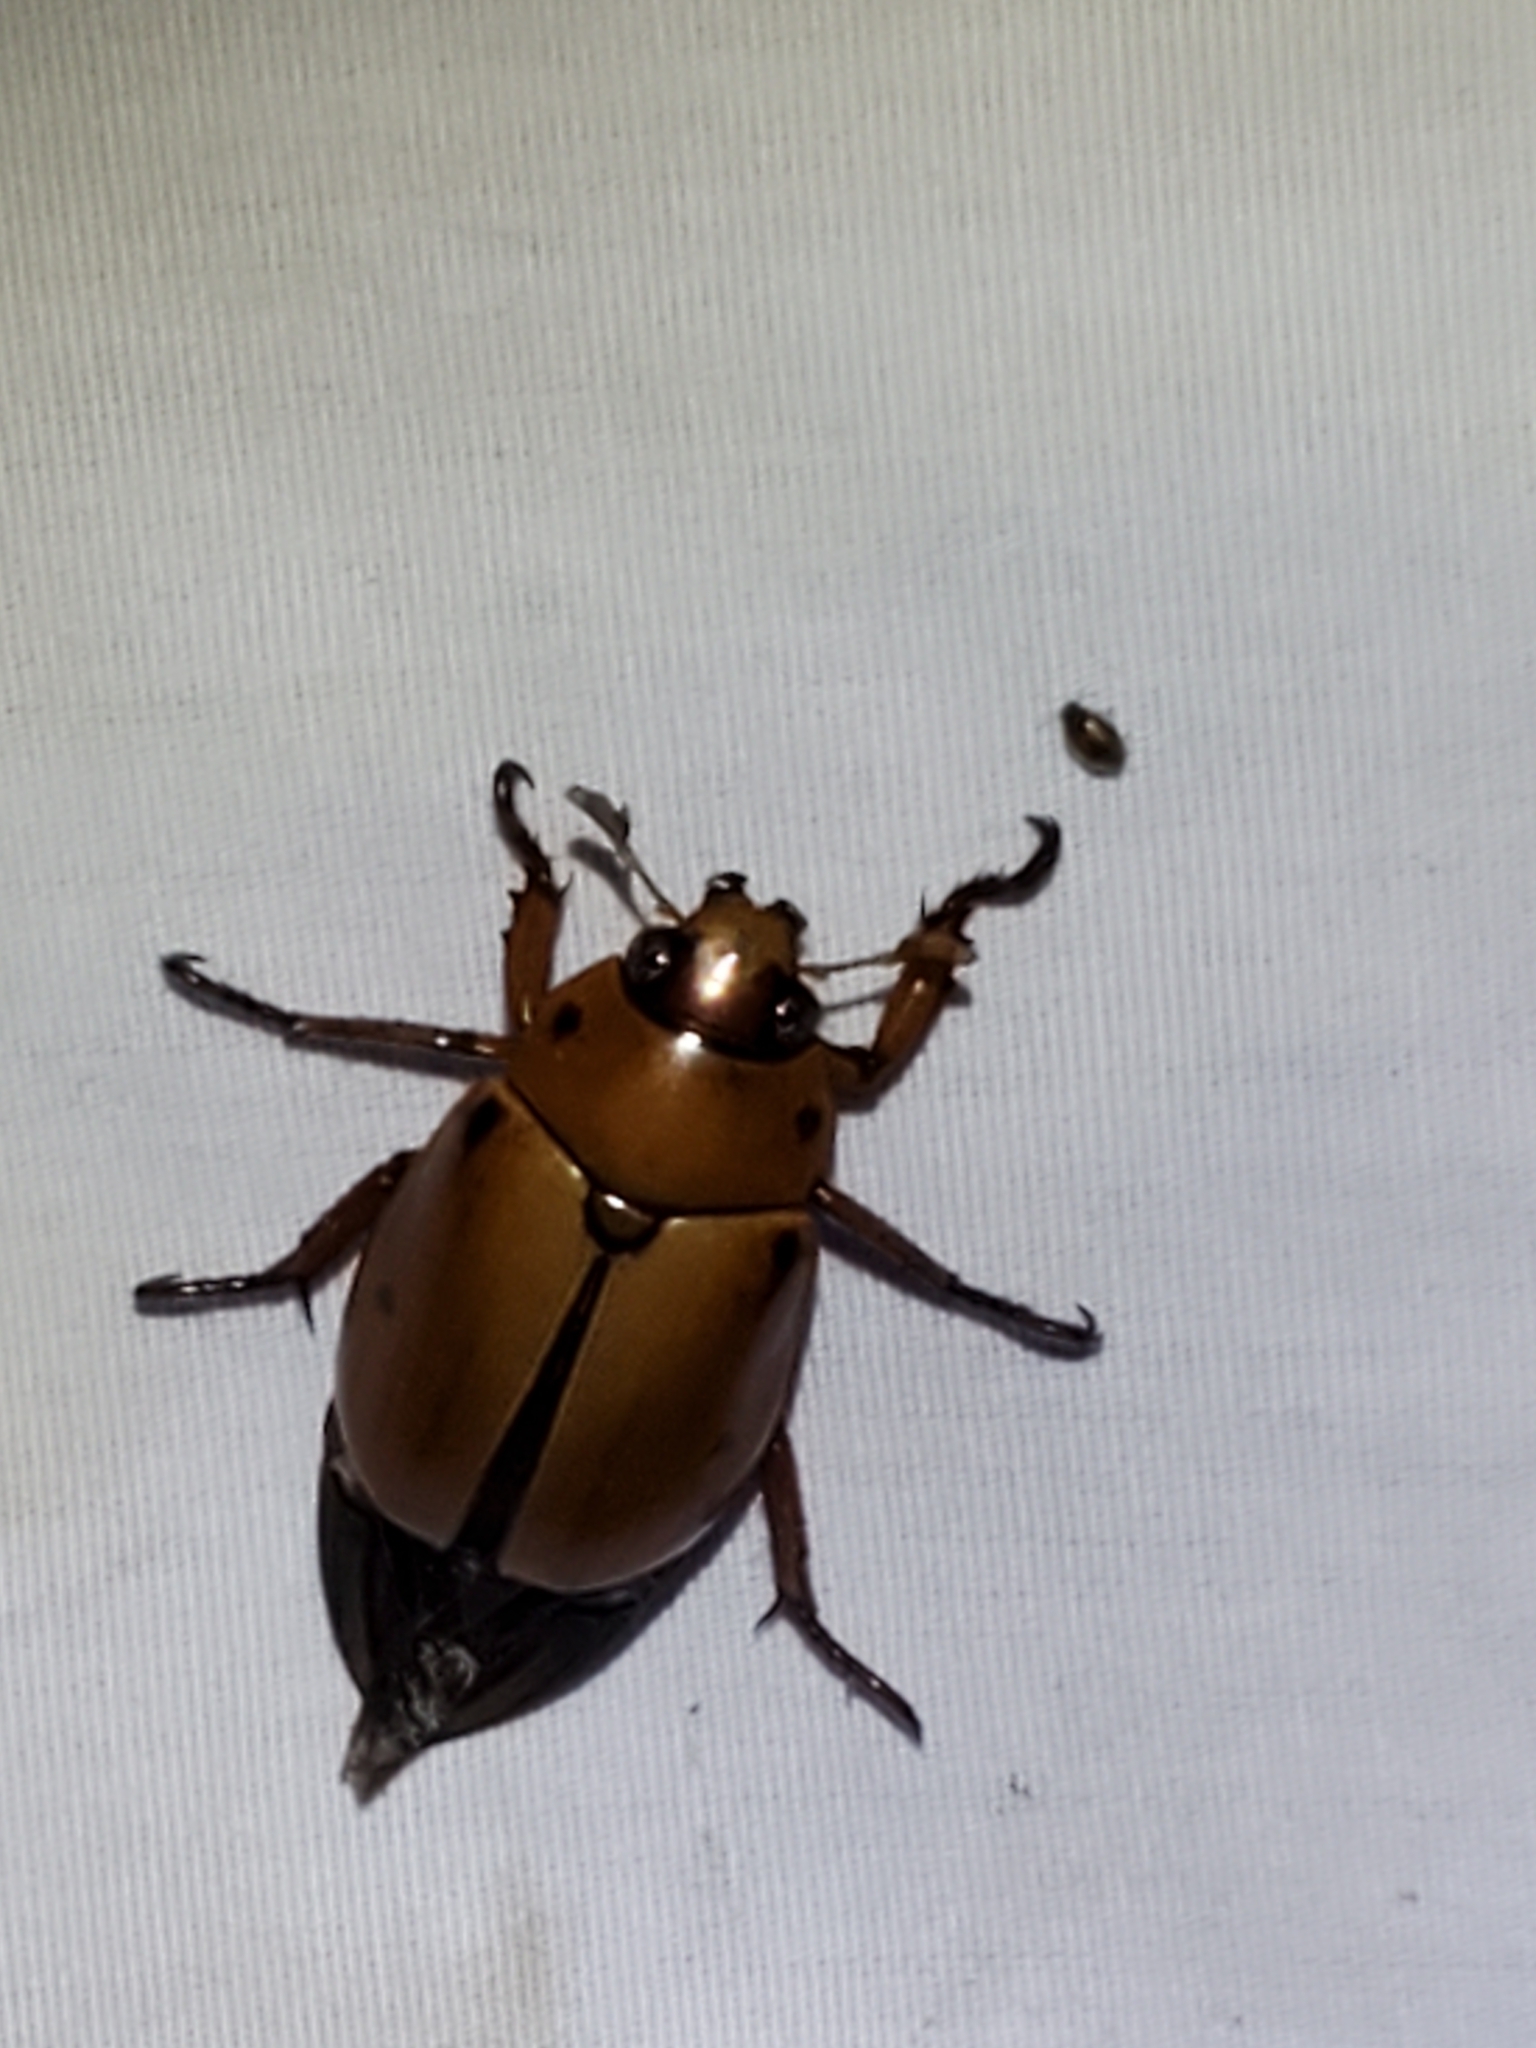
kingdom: Animalia
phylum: Arthropoda
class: Insecta
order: Coleoptera
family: Scarabaeidae
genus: Pelidnota
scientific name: Pelidnota punctata
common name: Grapevine beetle
